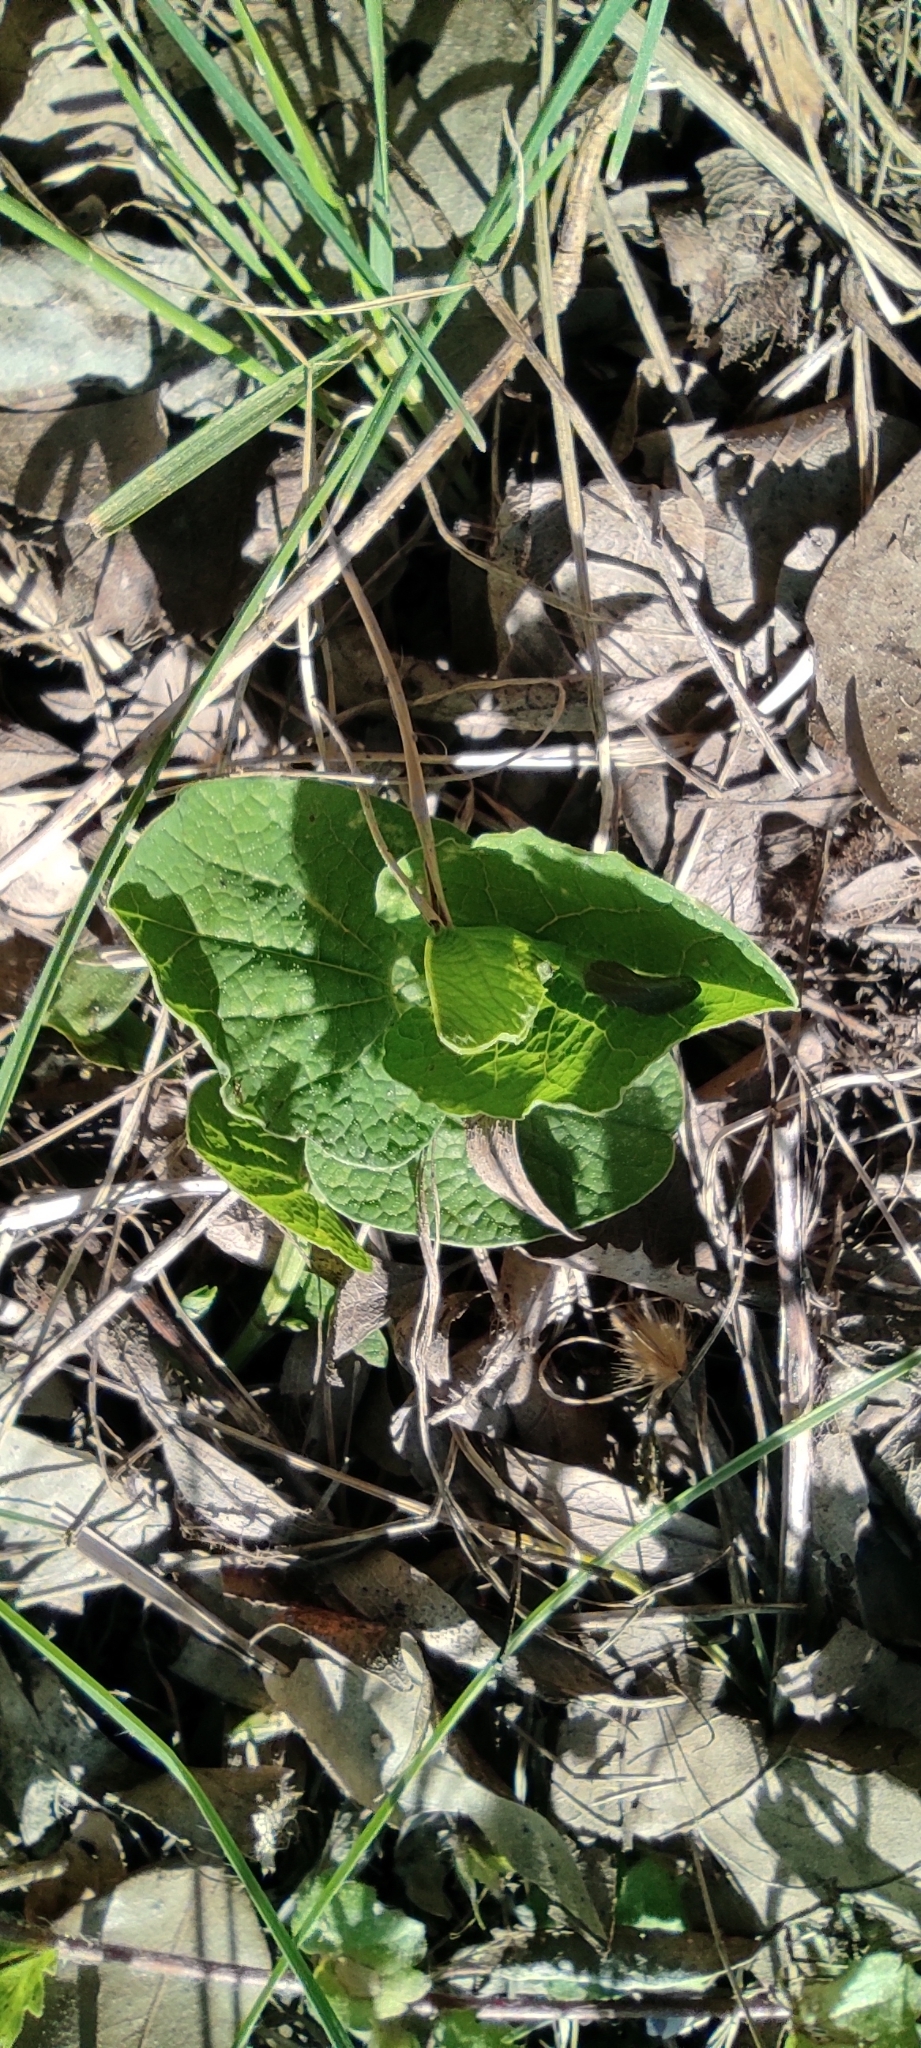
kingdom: Plantae
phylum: Tracheophyta
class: Magnoliopsida
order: Piperales
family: Aristolochiaceae
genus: Aristolochia
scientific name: Aristolochia rotunda
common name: Smearwort
